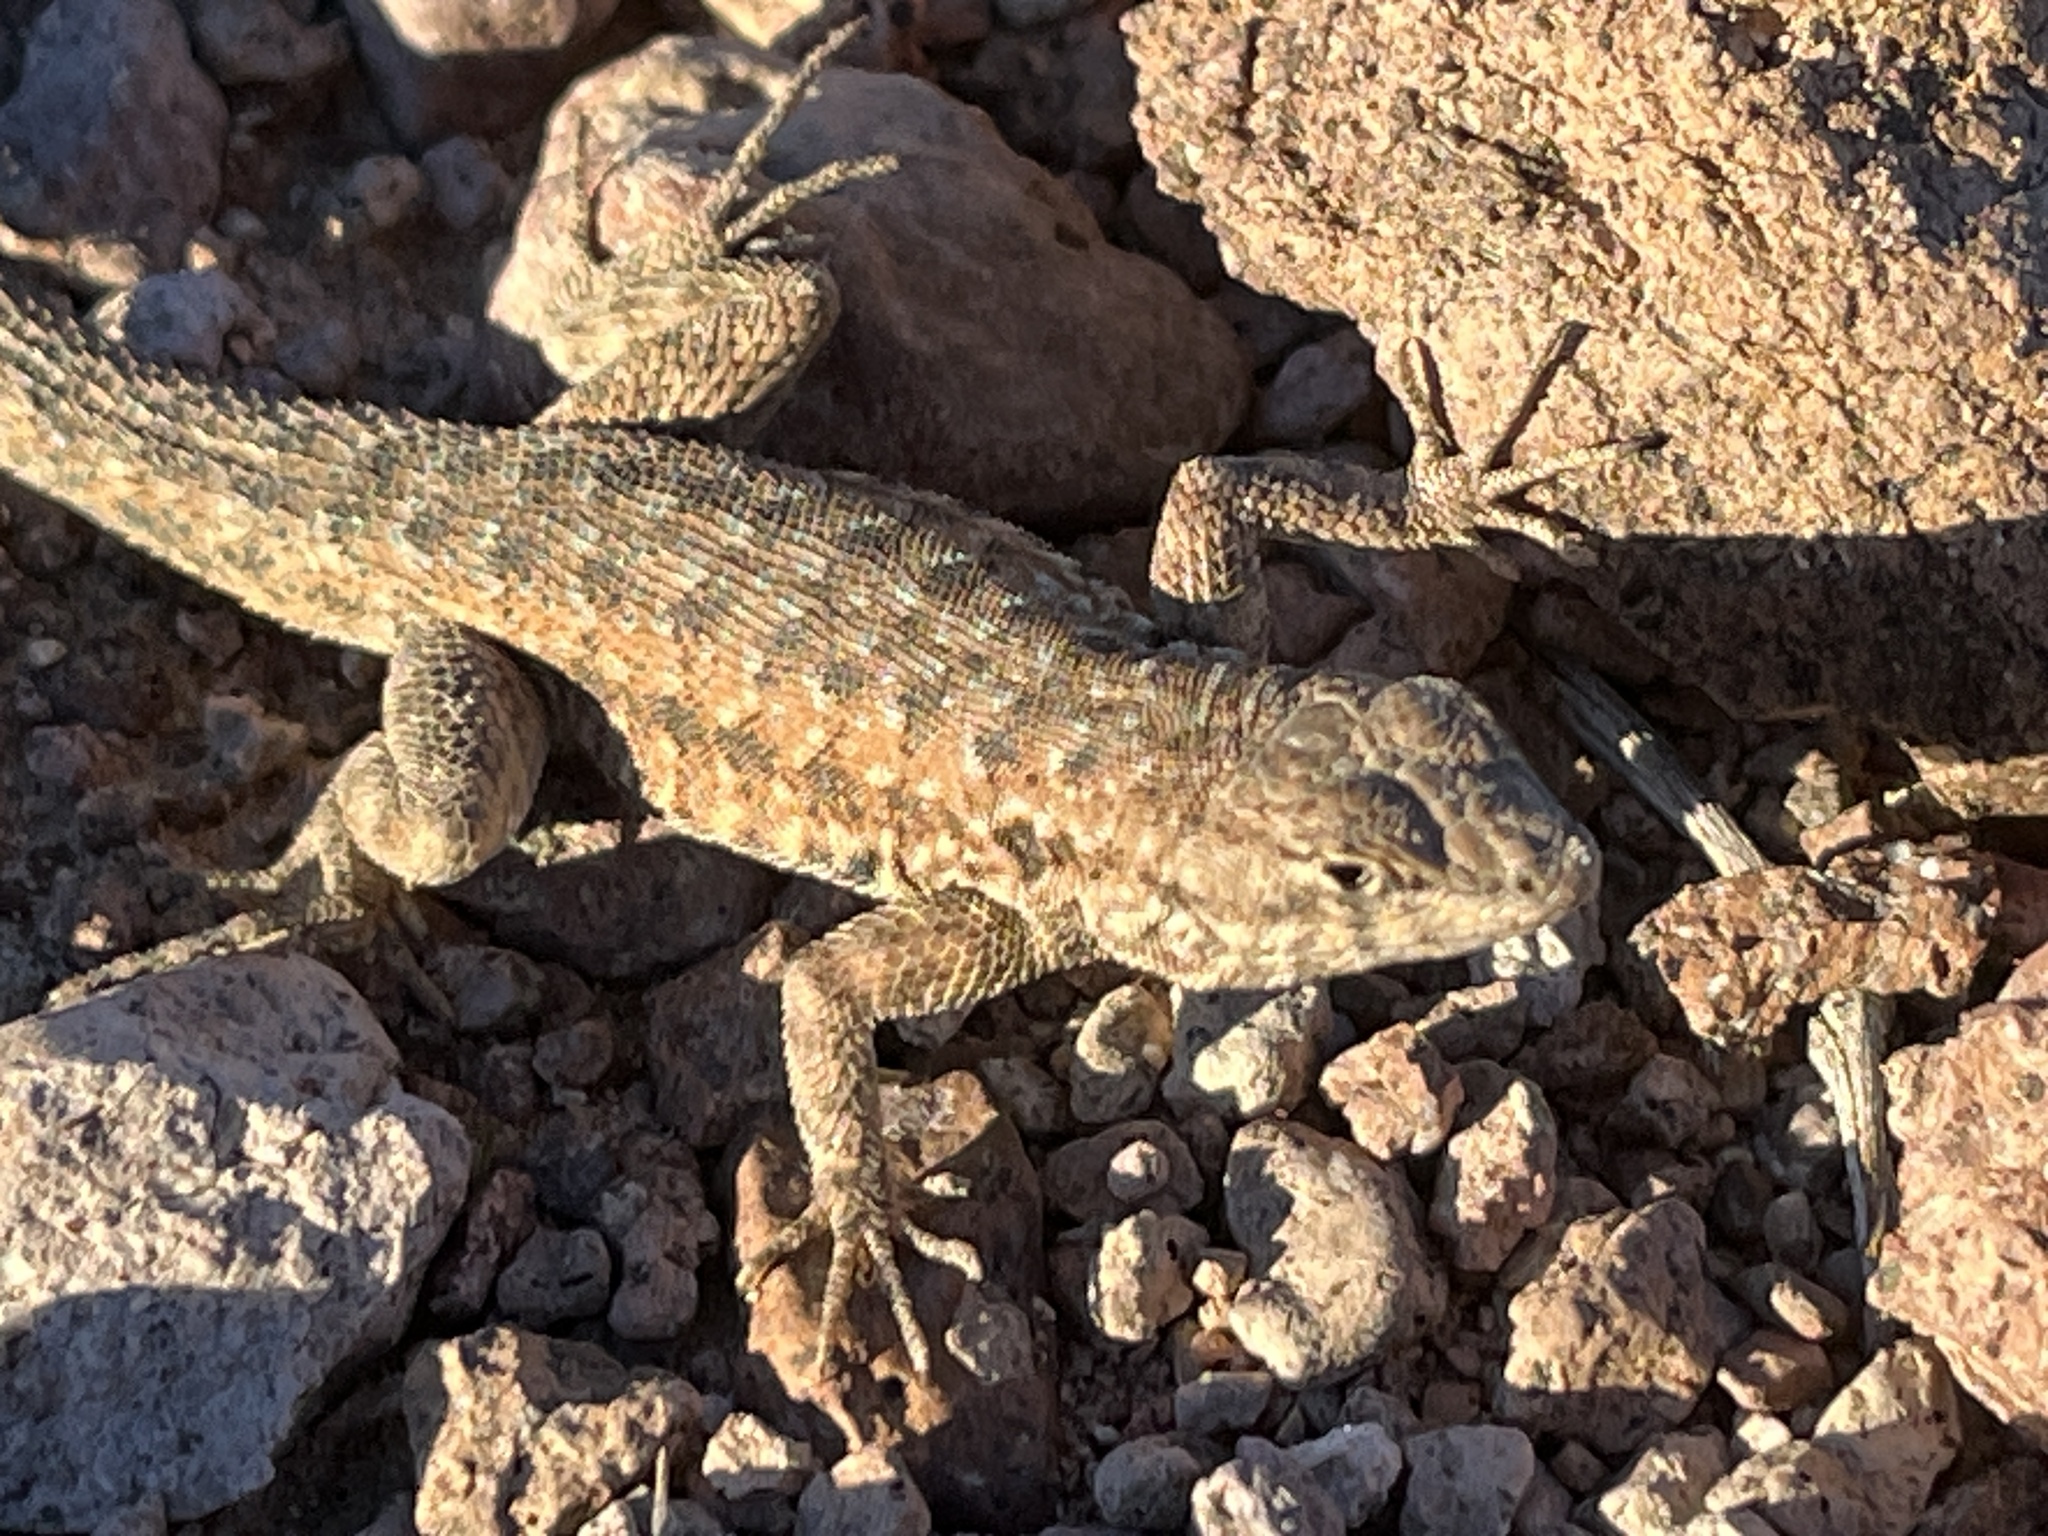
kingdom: Animalia
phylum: Chordata
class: Squamata
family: Phrynosomatidae
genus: Uta
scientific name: Uta stansburiana
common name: Side-blotched lizard
